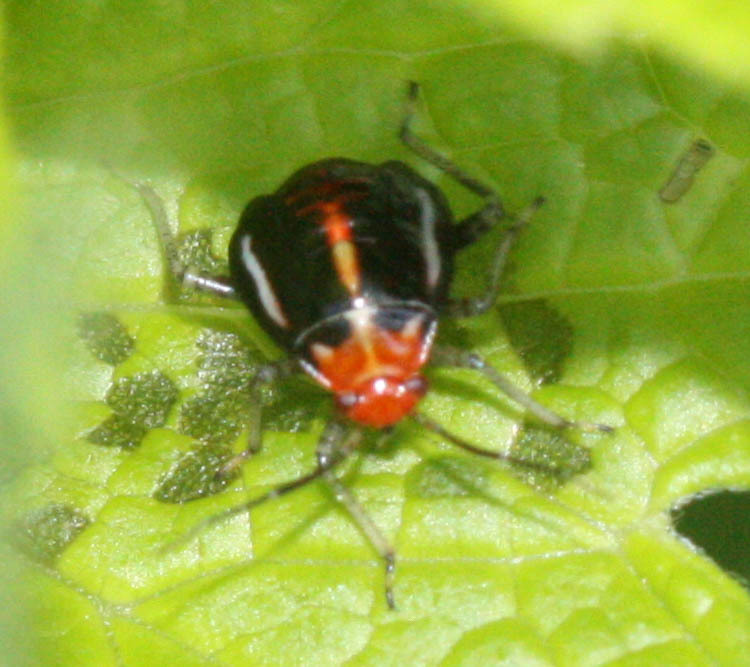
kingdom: Animalia
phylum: Arthropoda
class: Insecta
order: Hemiptera
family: Miridae
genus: Poecilocapsus
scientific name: Poecilocapsus lineatus
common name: Four-lined plant bug
